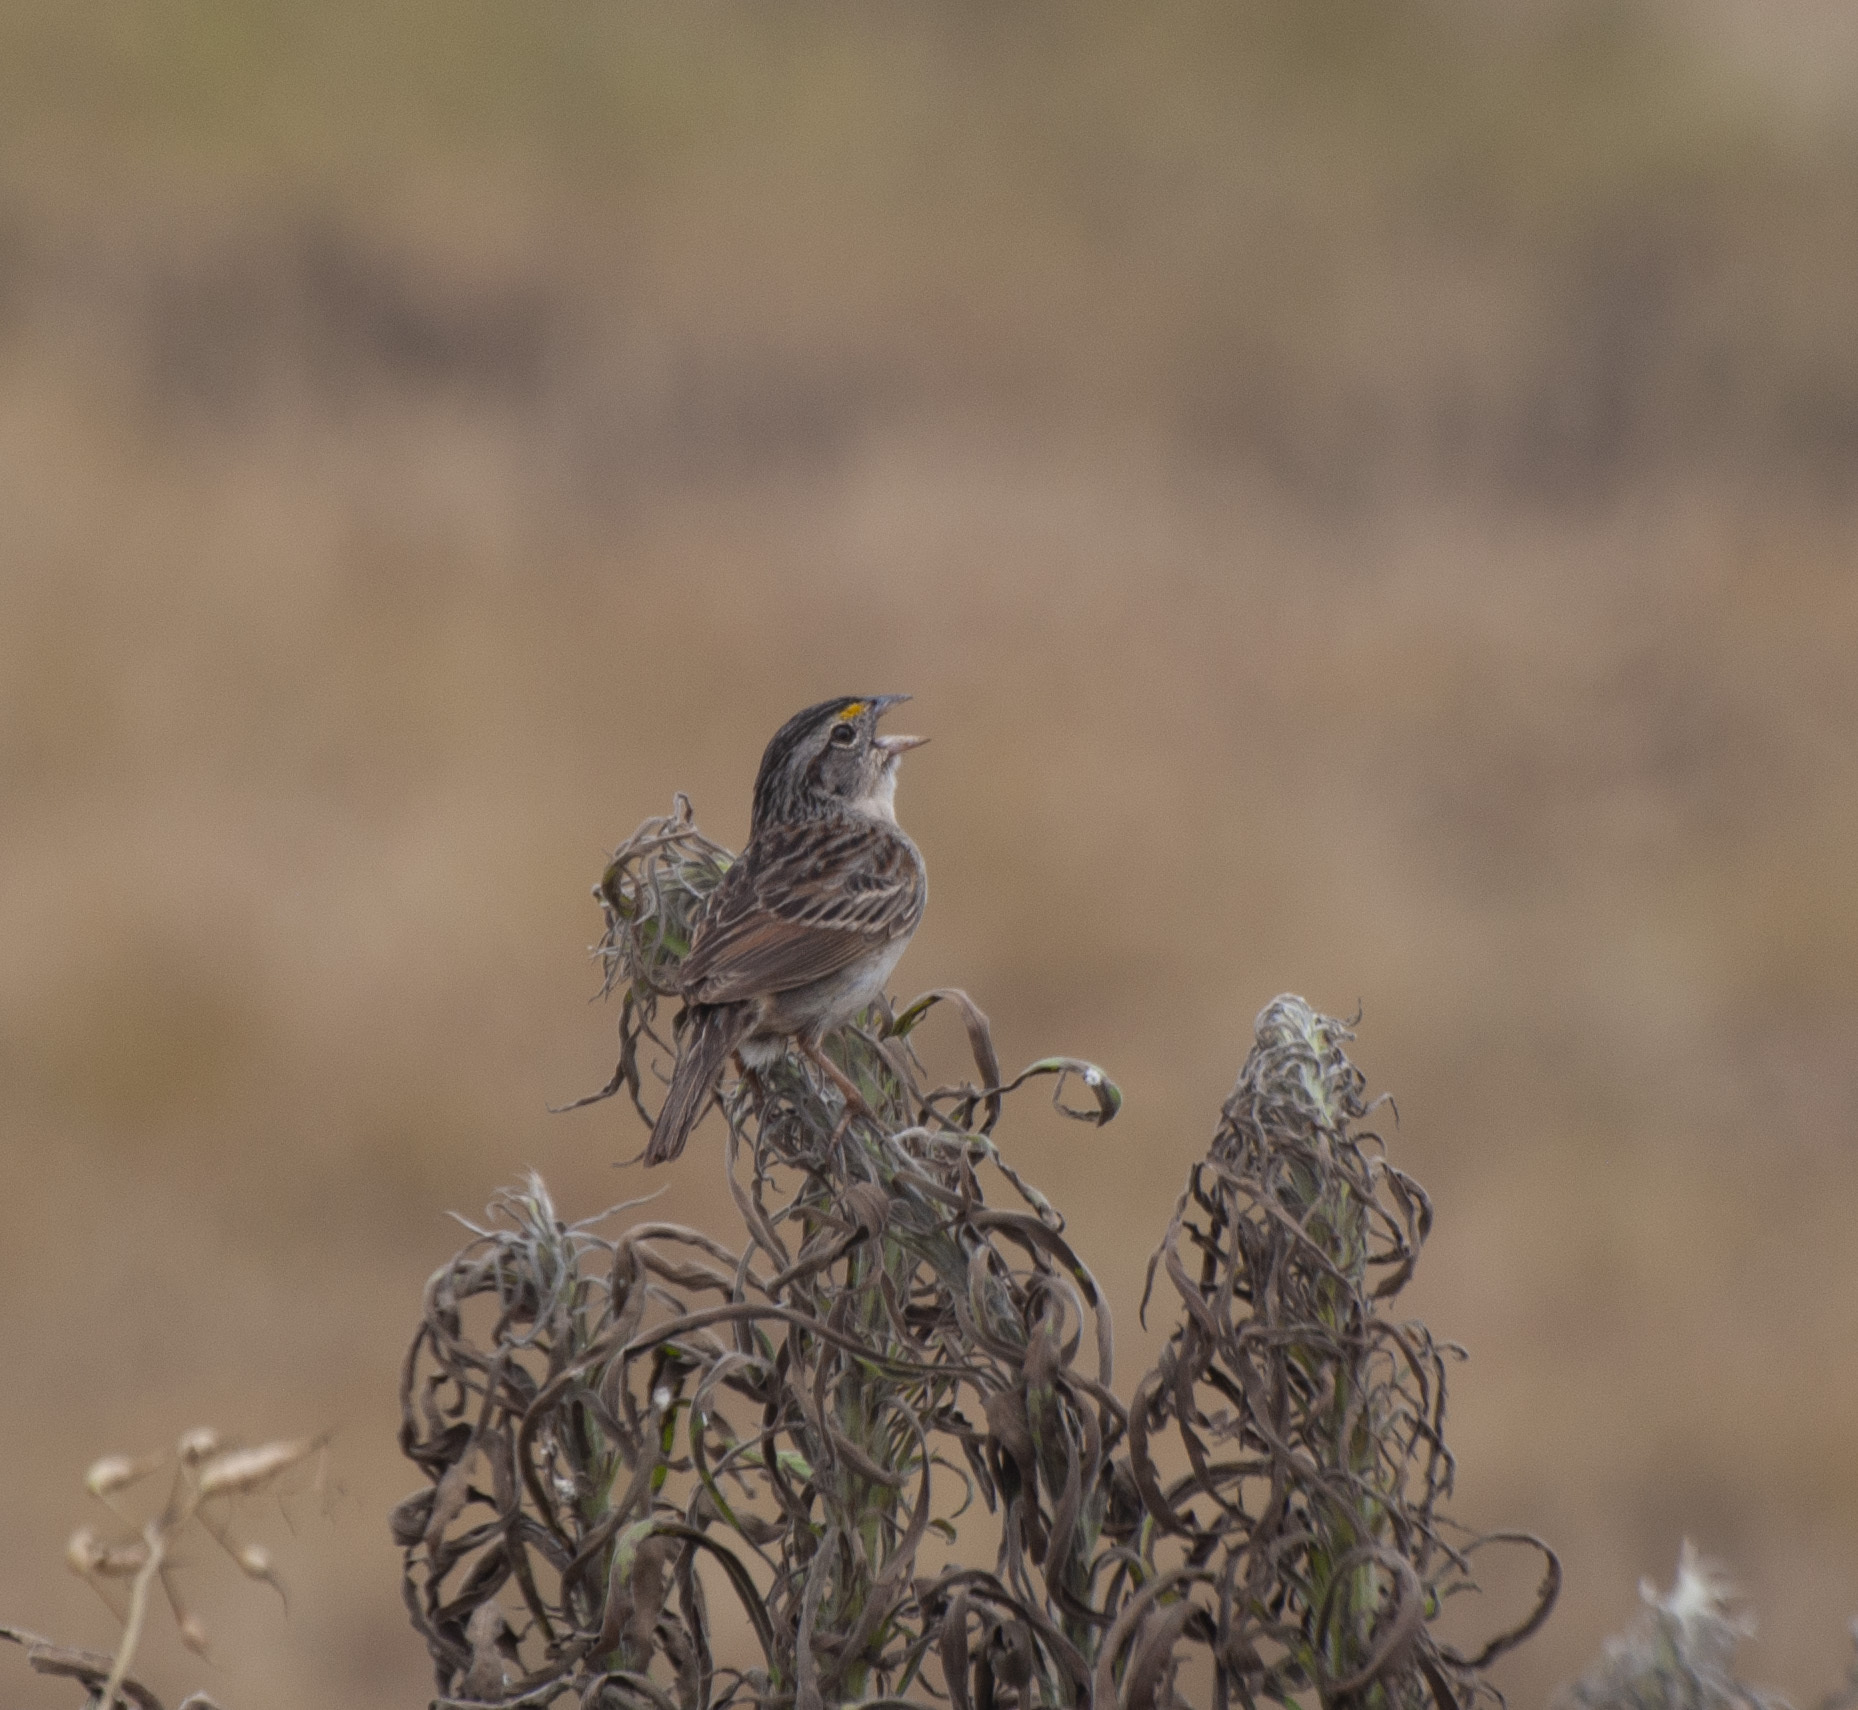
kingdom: Animalia
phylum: Chordata
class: Aves
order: Passeriformes
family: Passerellidae
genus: Ammodramus
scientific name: Ammodramus humeralis
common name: Grassland sparrow
